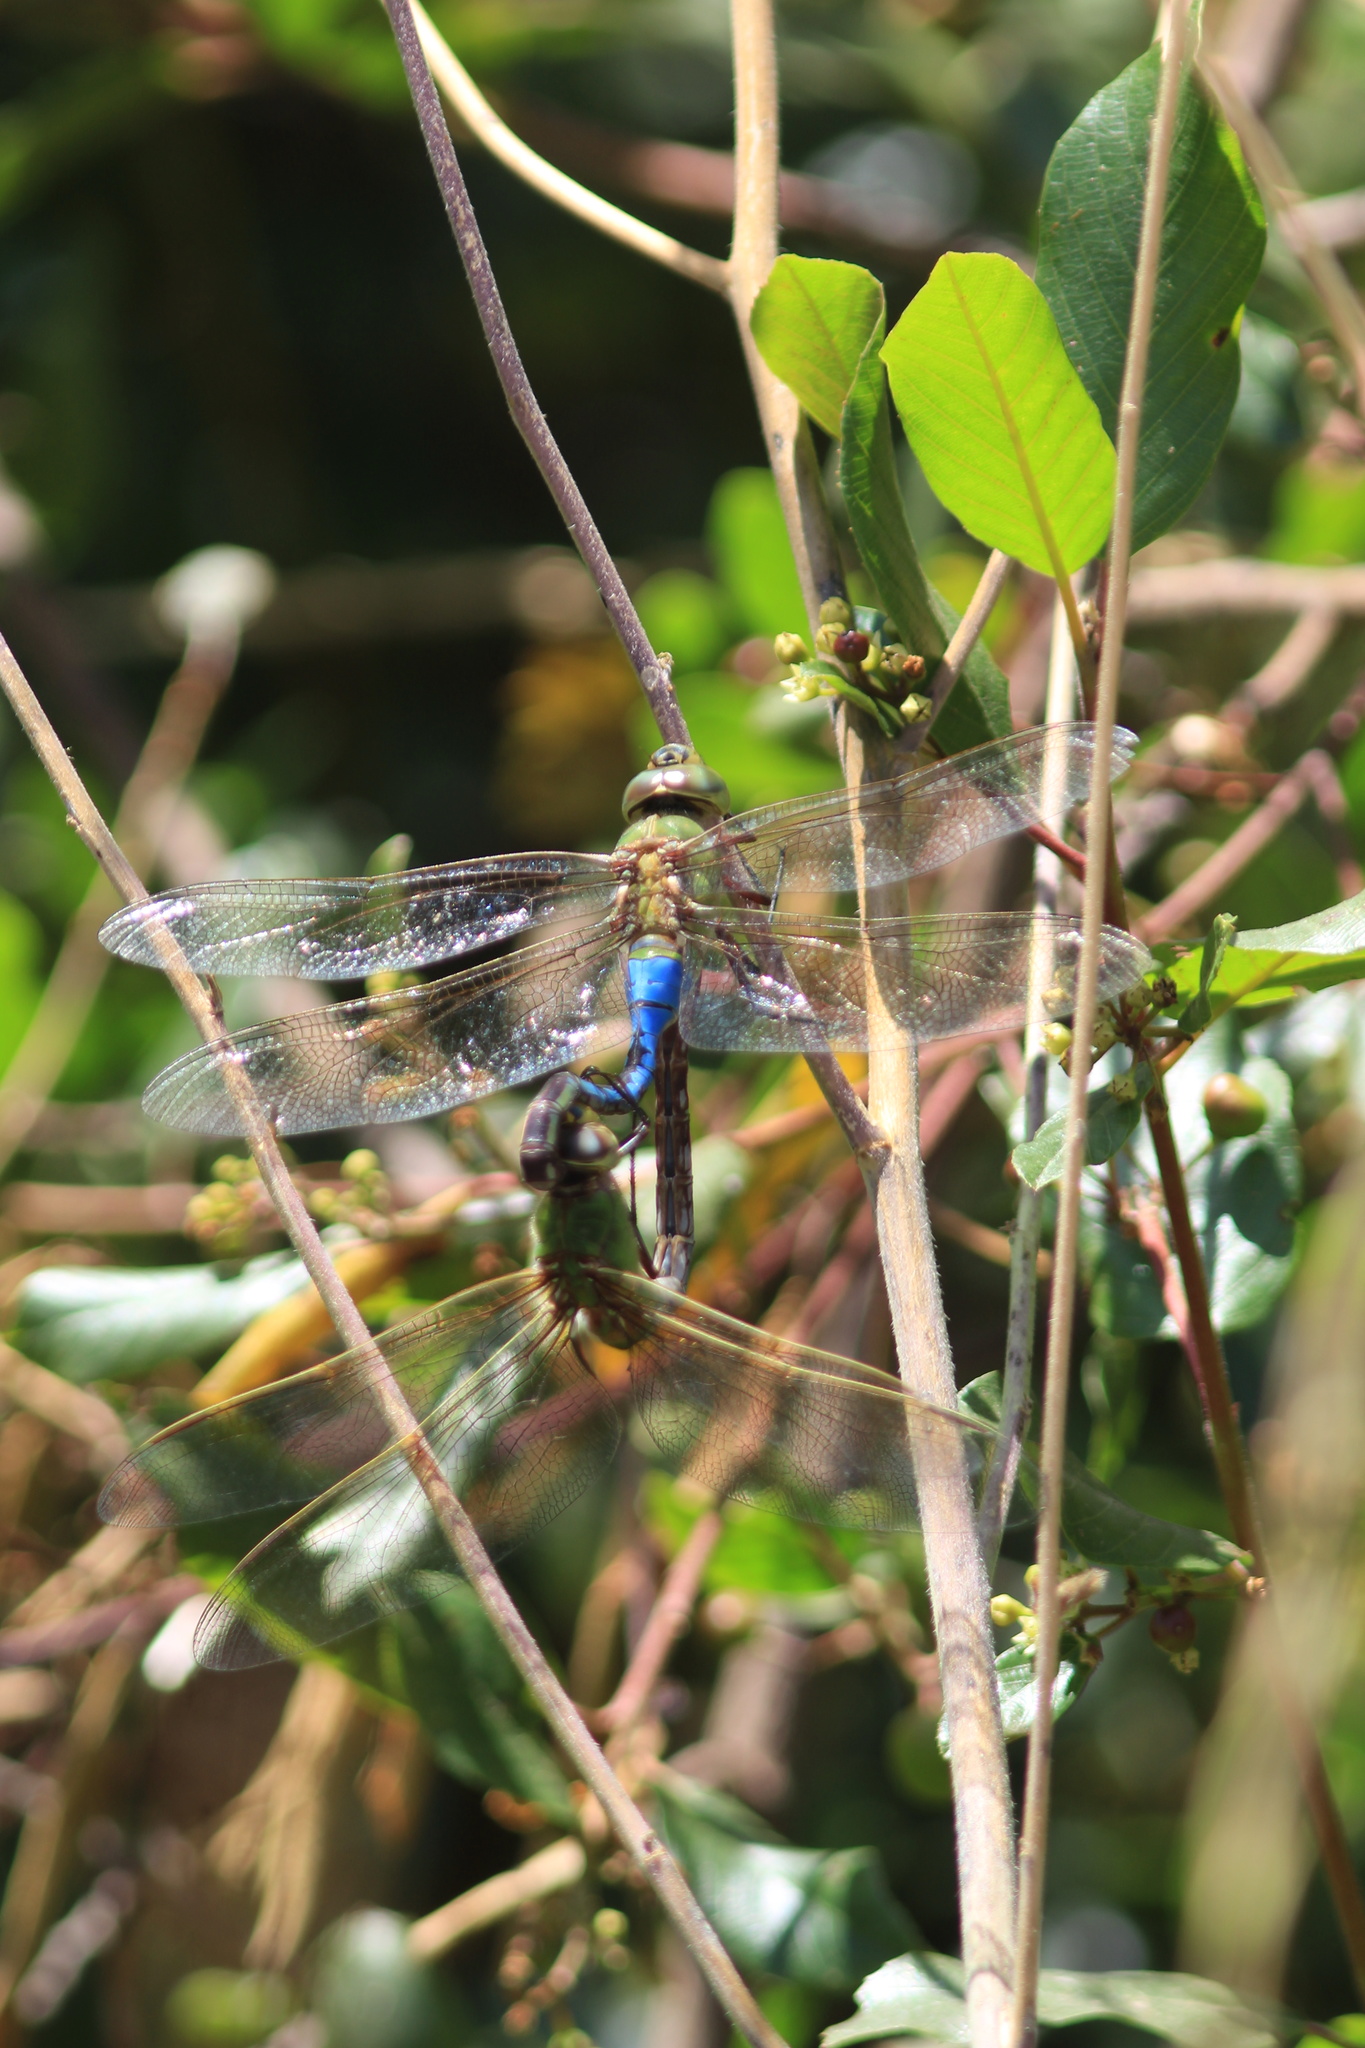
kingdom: Animalia
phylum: Arthropoda
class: Insecta
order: Odonata
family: Aeshnidae
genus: Anax
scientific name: Anax junius
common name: Common green darner
